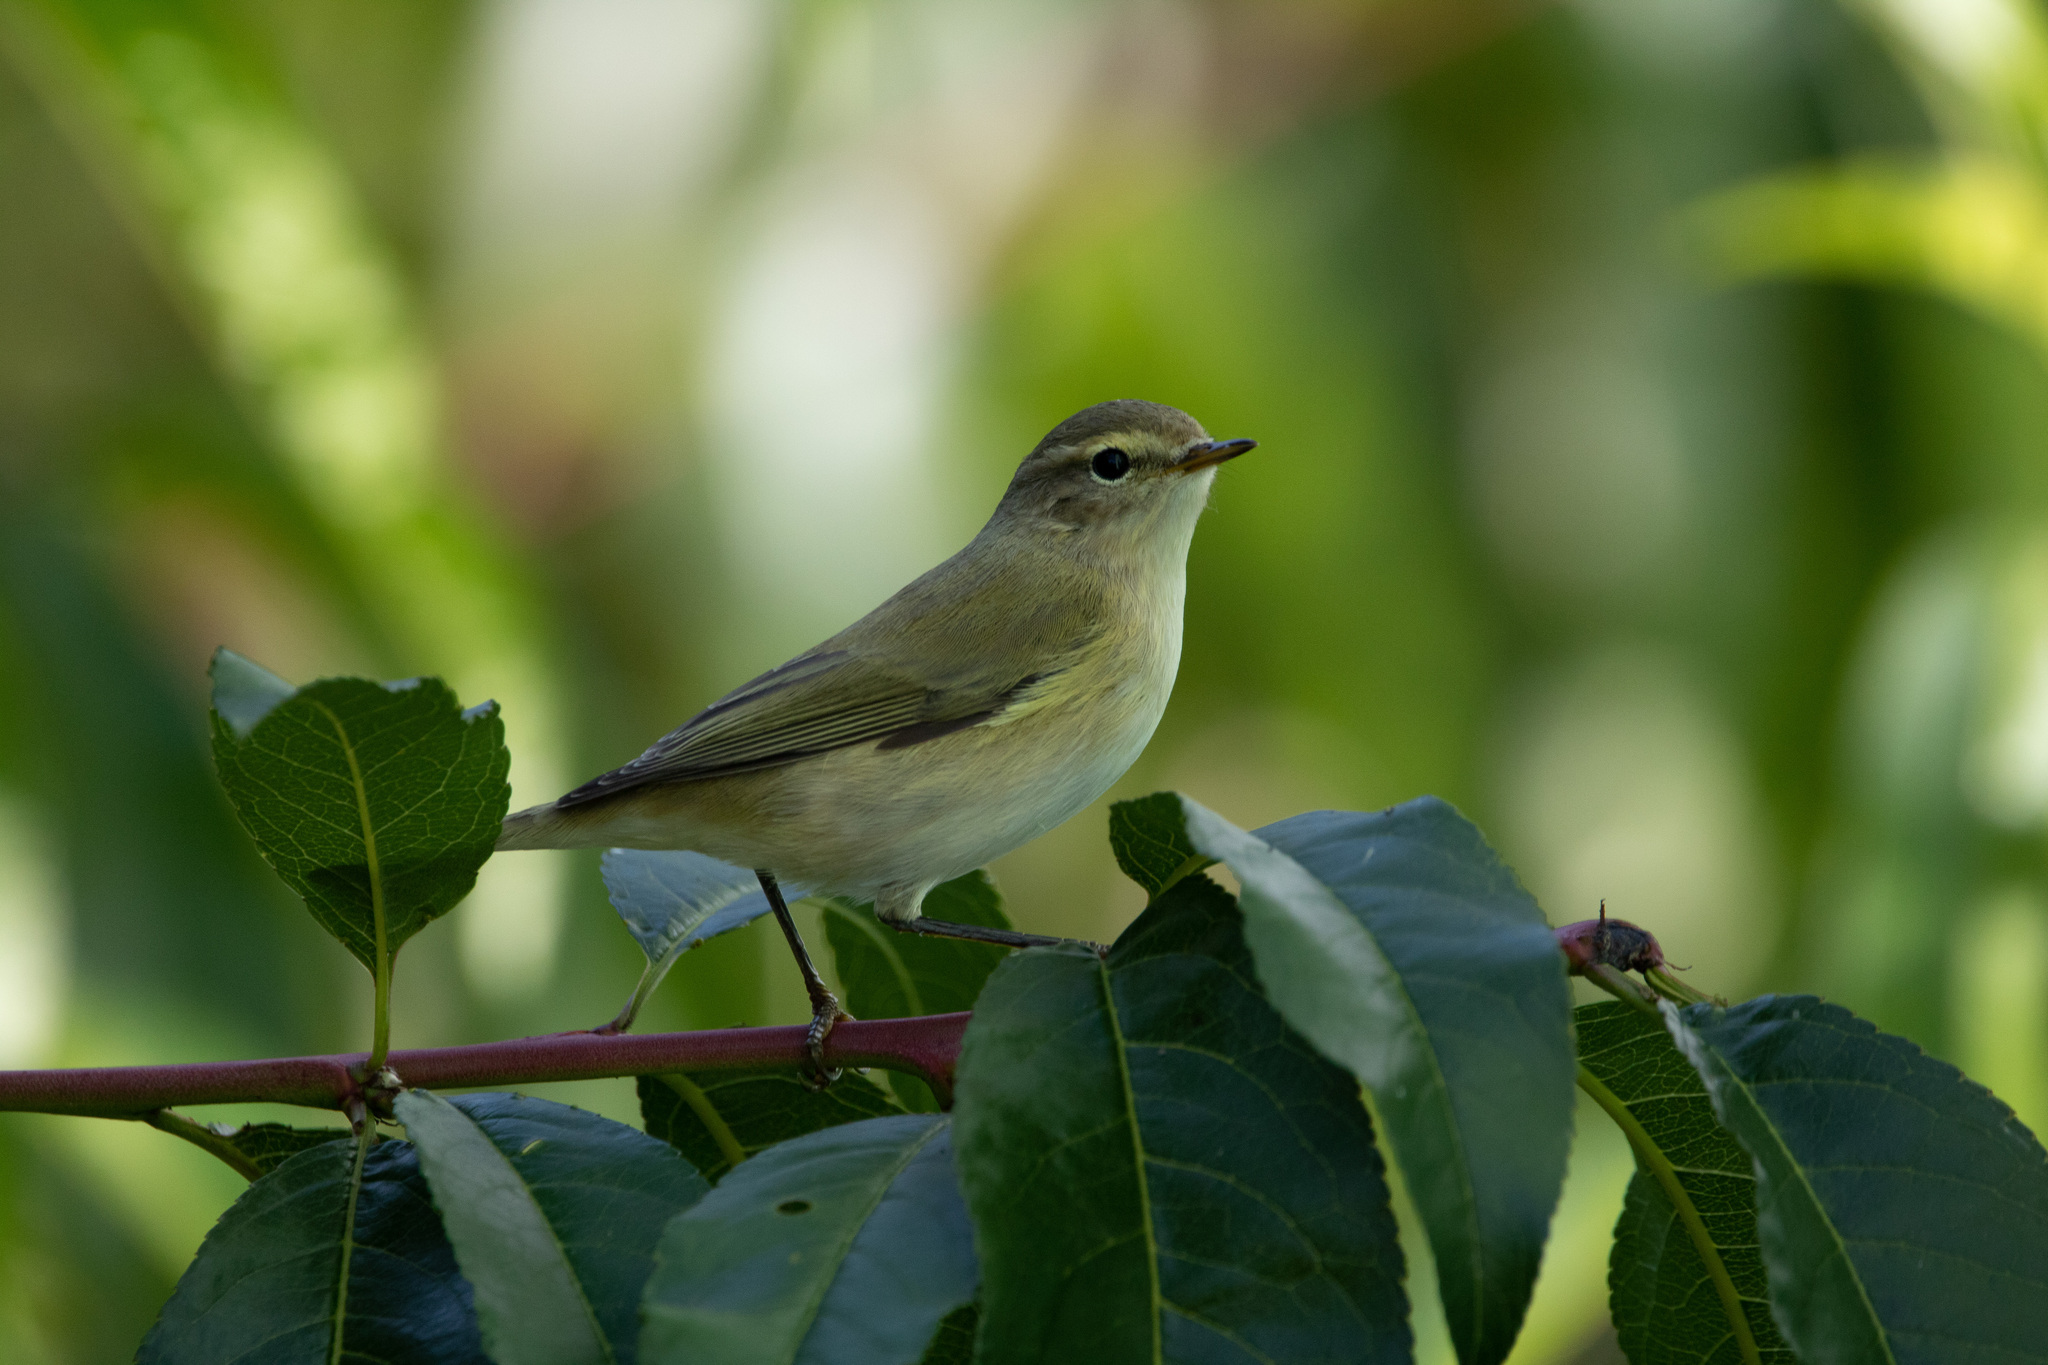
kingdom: Animalia
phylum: Chordata
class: Aves
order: Passeriformes
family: Phylloscopidae
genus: Phylloscopus
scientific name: Phylloscopus collybita
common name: Common chiffchaff
